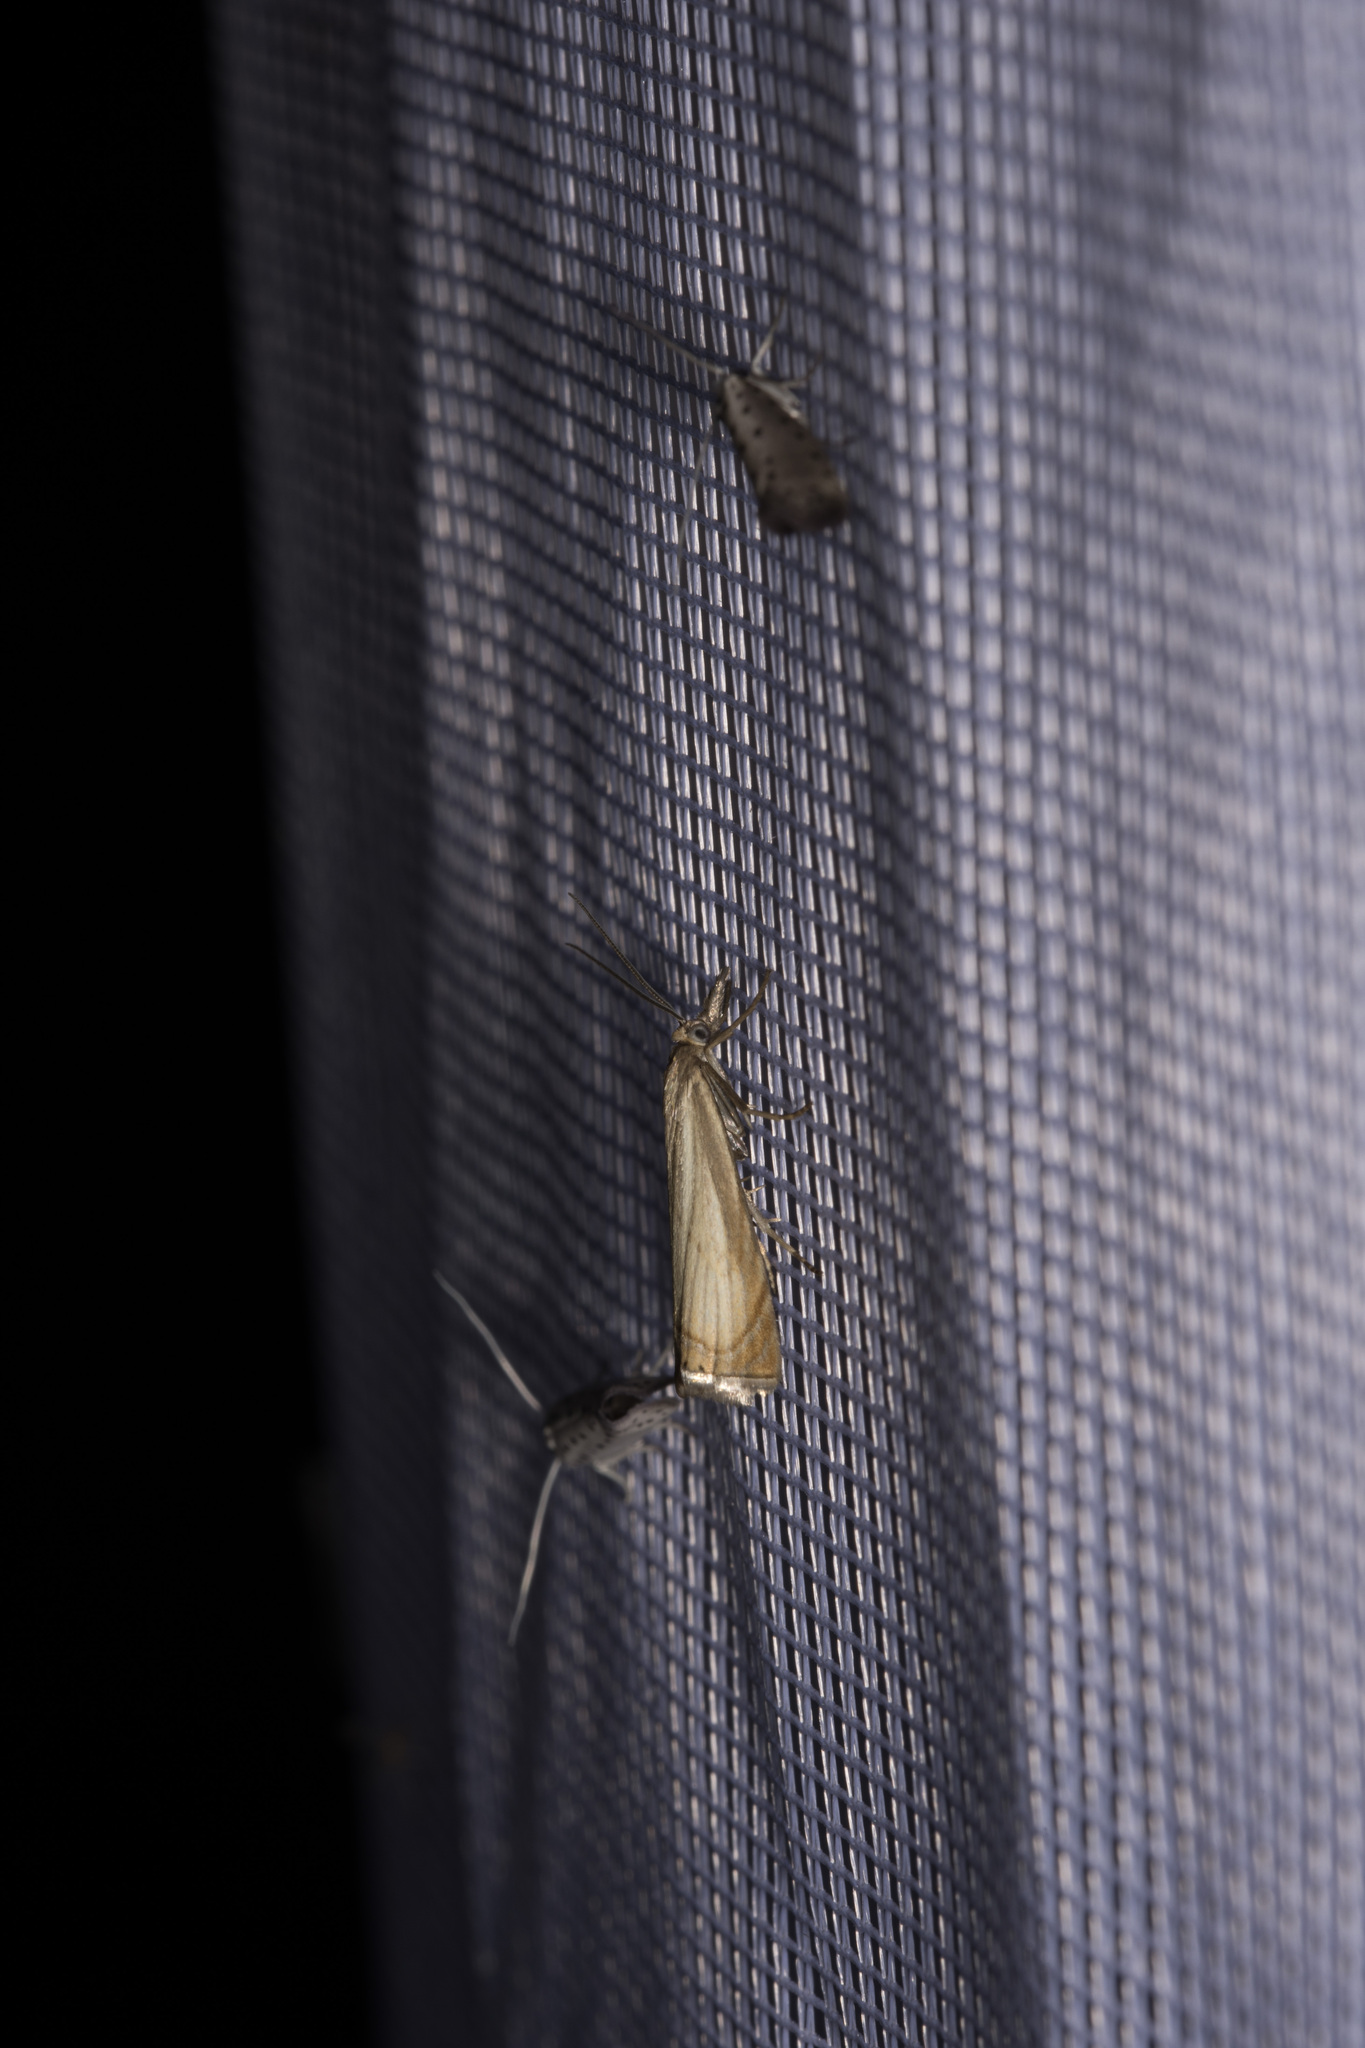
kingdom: Animalia
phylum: Arthropoda
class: Insecta
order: Lepidoptera
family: Crambidae
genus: Chrysoteuchia
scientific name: Chrysoteuchia culmella
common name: Garden grass-veneer
